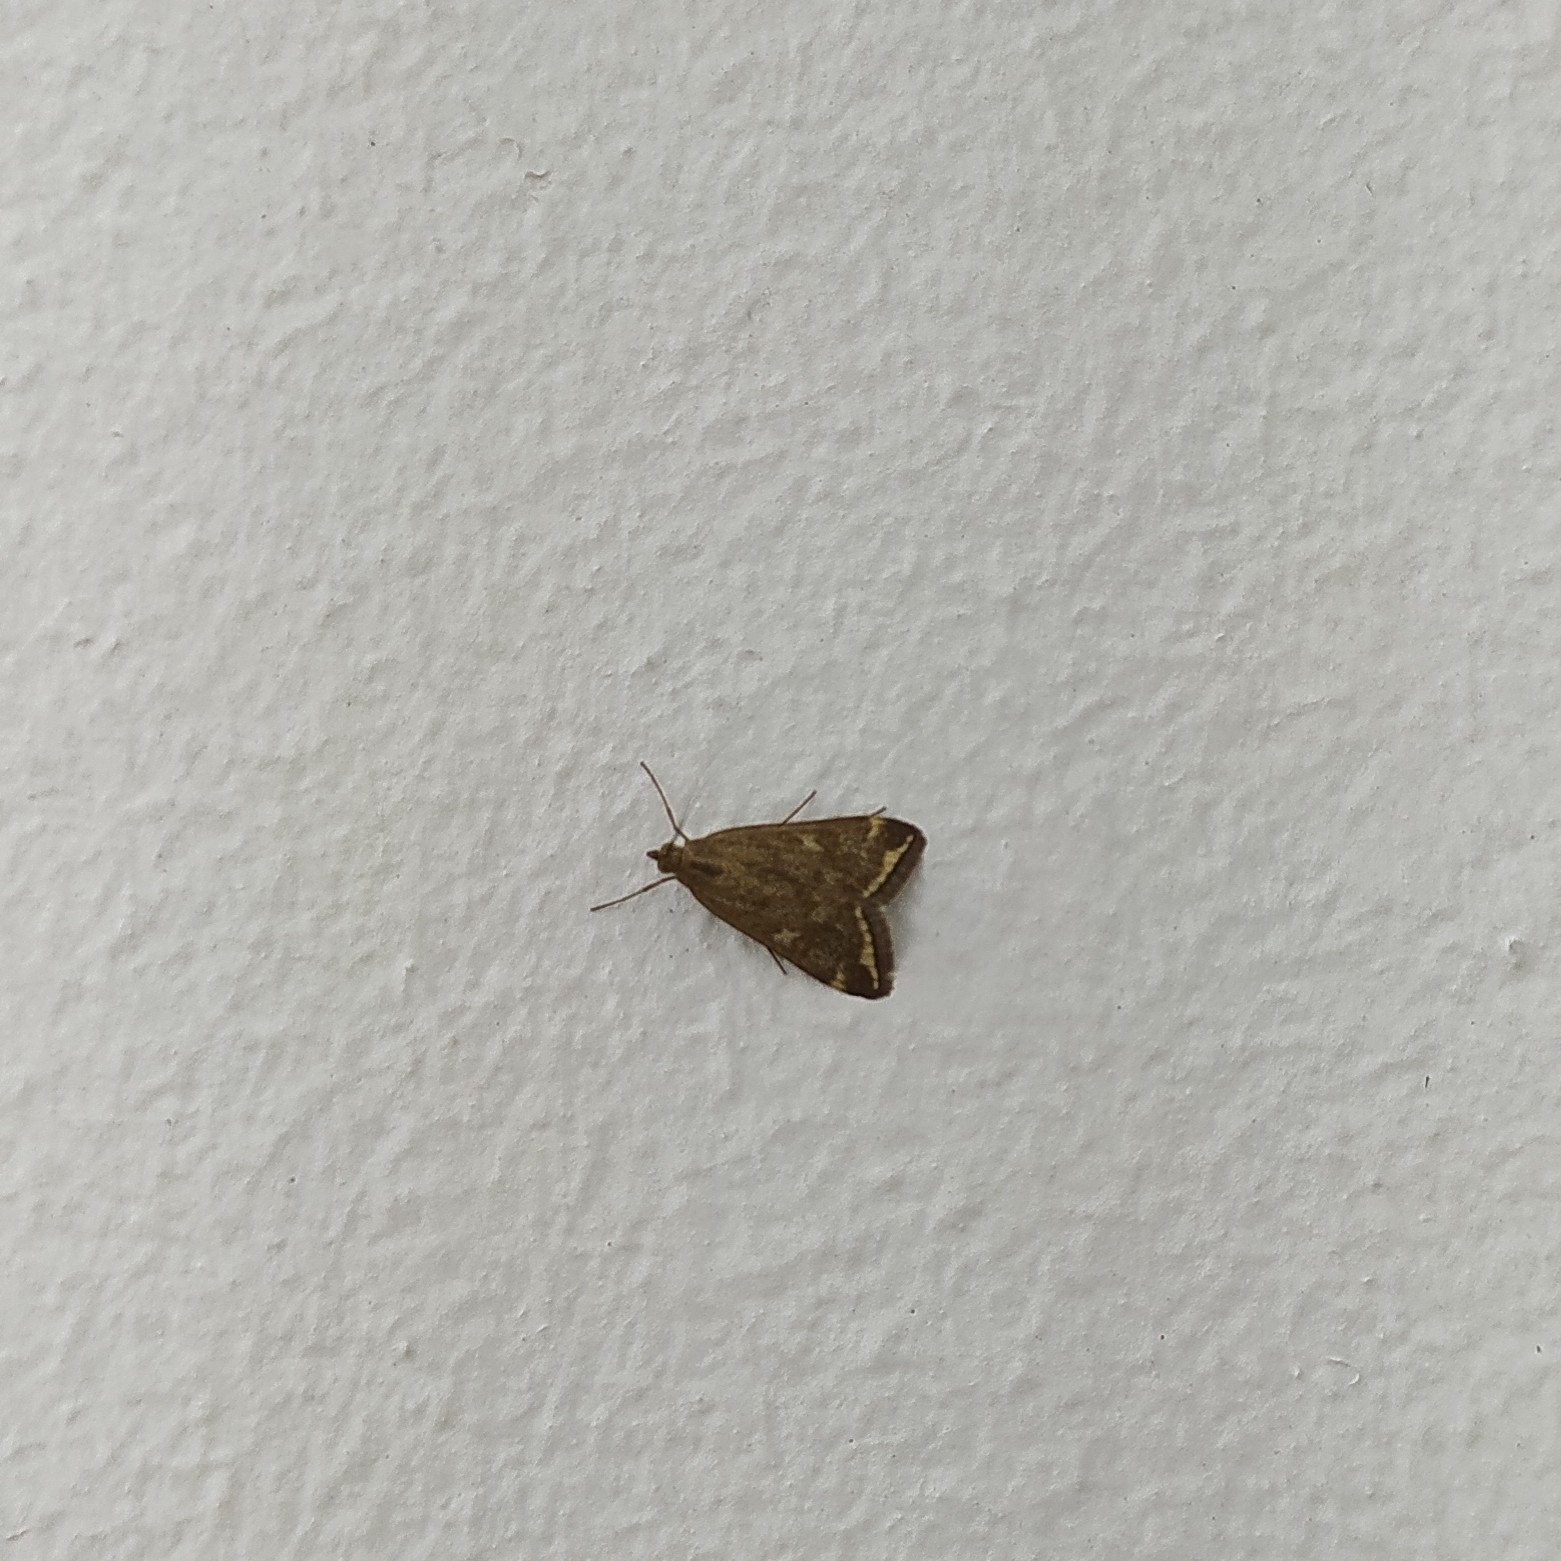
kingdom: Animalia
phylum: Arthropoda
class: Insecta
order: Lepidoptera
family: Crambidae
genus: Loxostege
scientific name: Loxostege sticticalis
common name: Crambid moth
